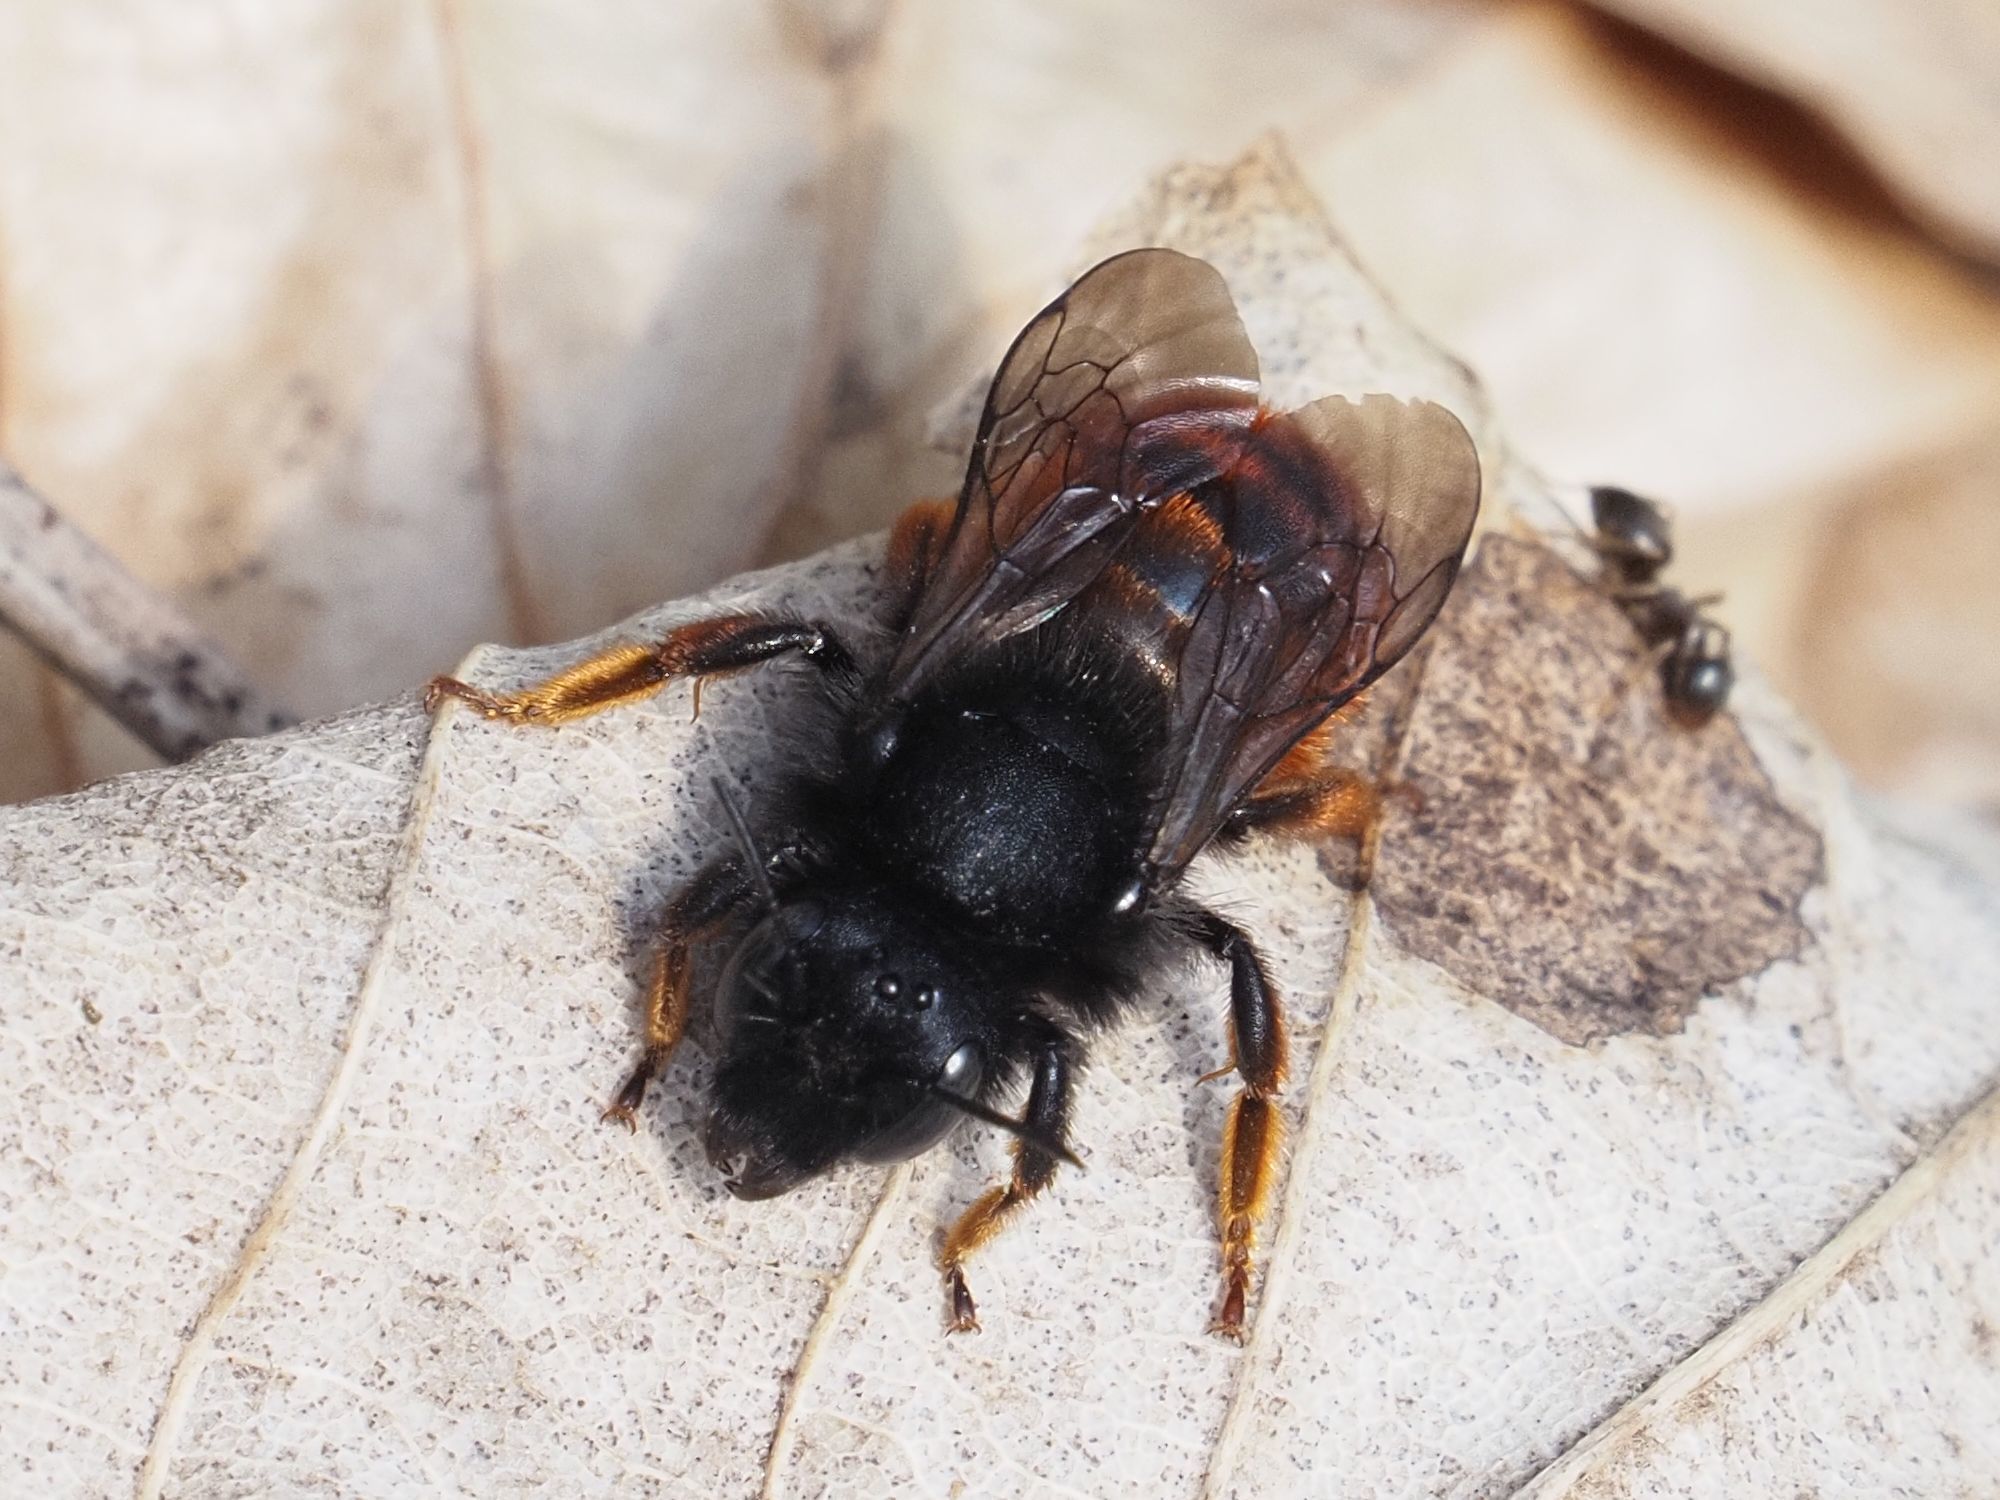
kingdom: Animalia
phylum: Arthropoda
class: Insecta
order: Hymenoptera
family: Megachilidae
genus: Osmia
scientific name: Osmia bicolor
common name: Red-tailed mason bee
